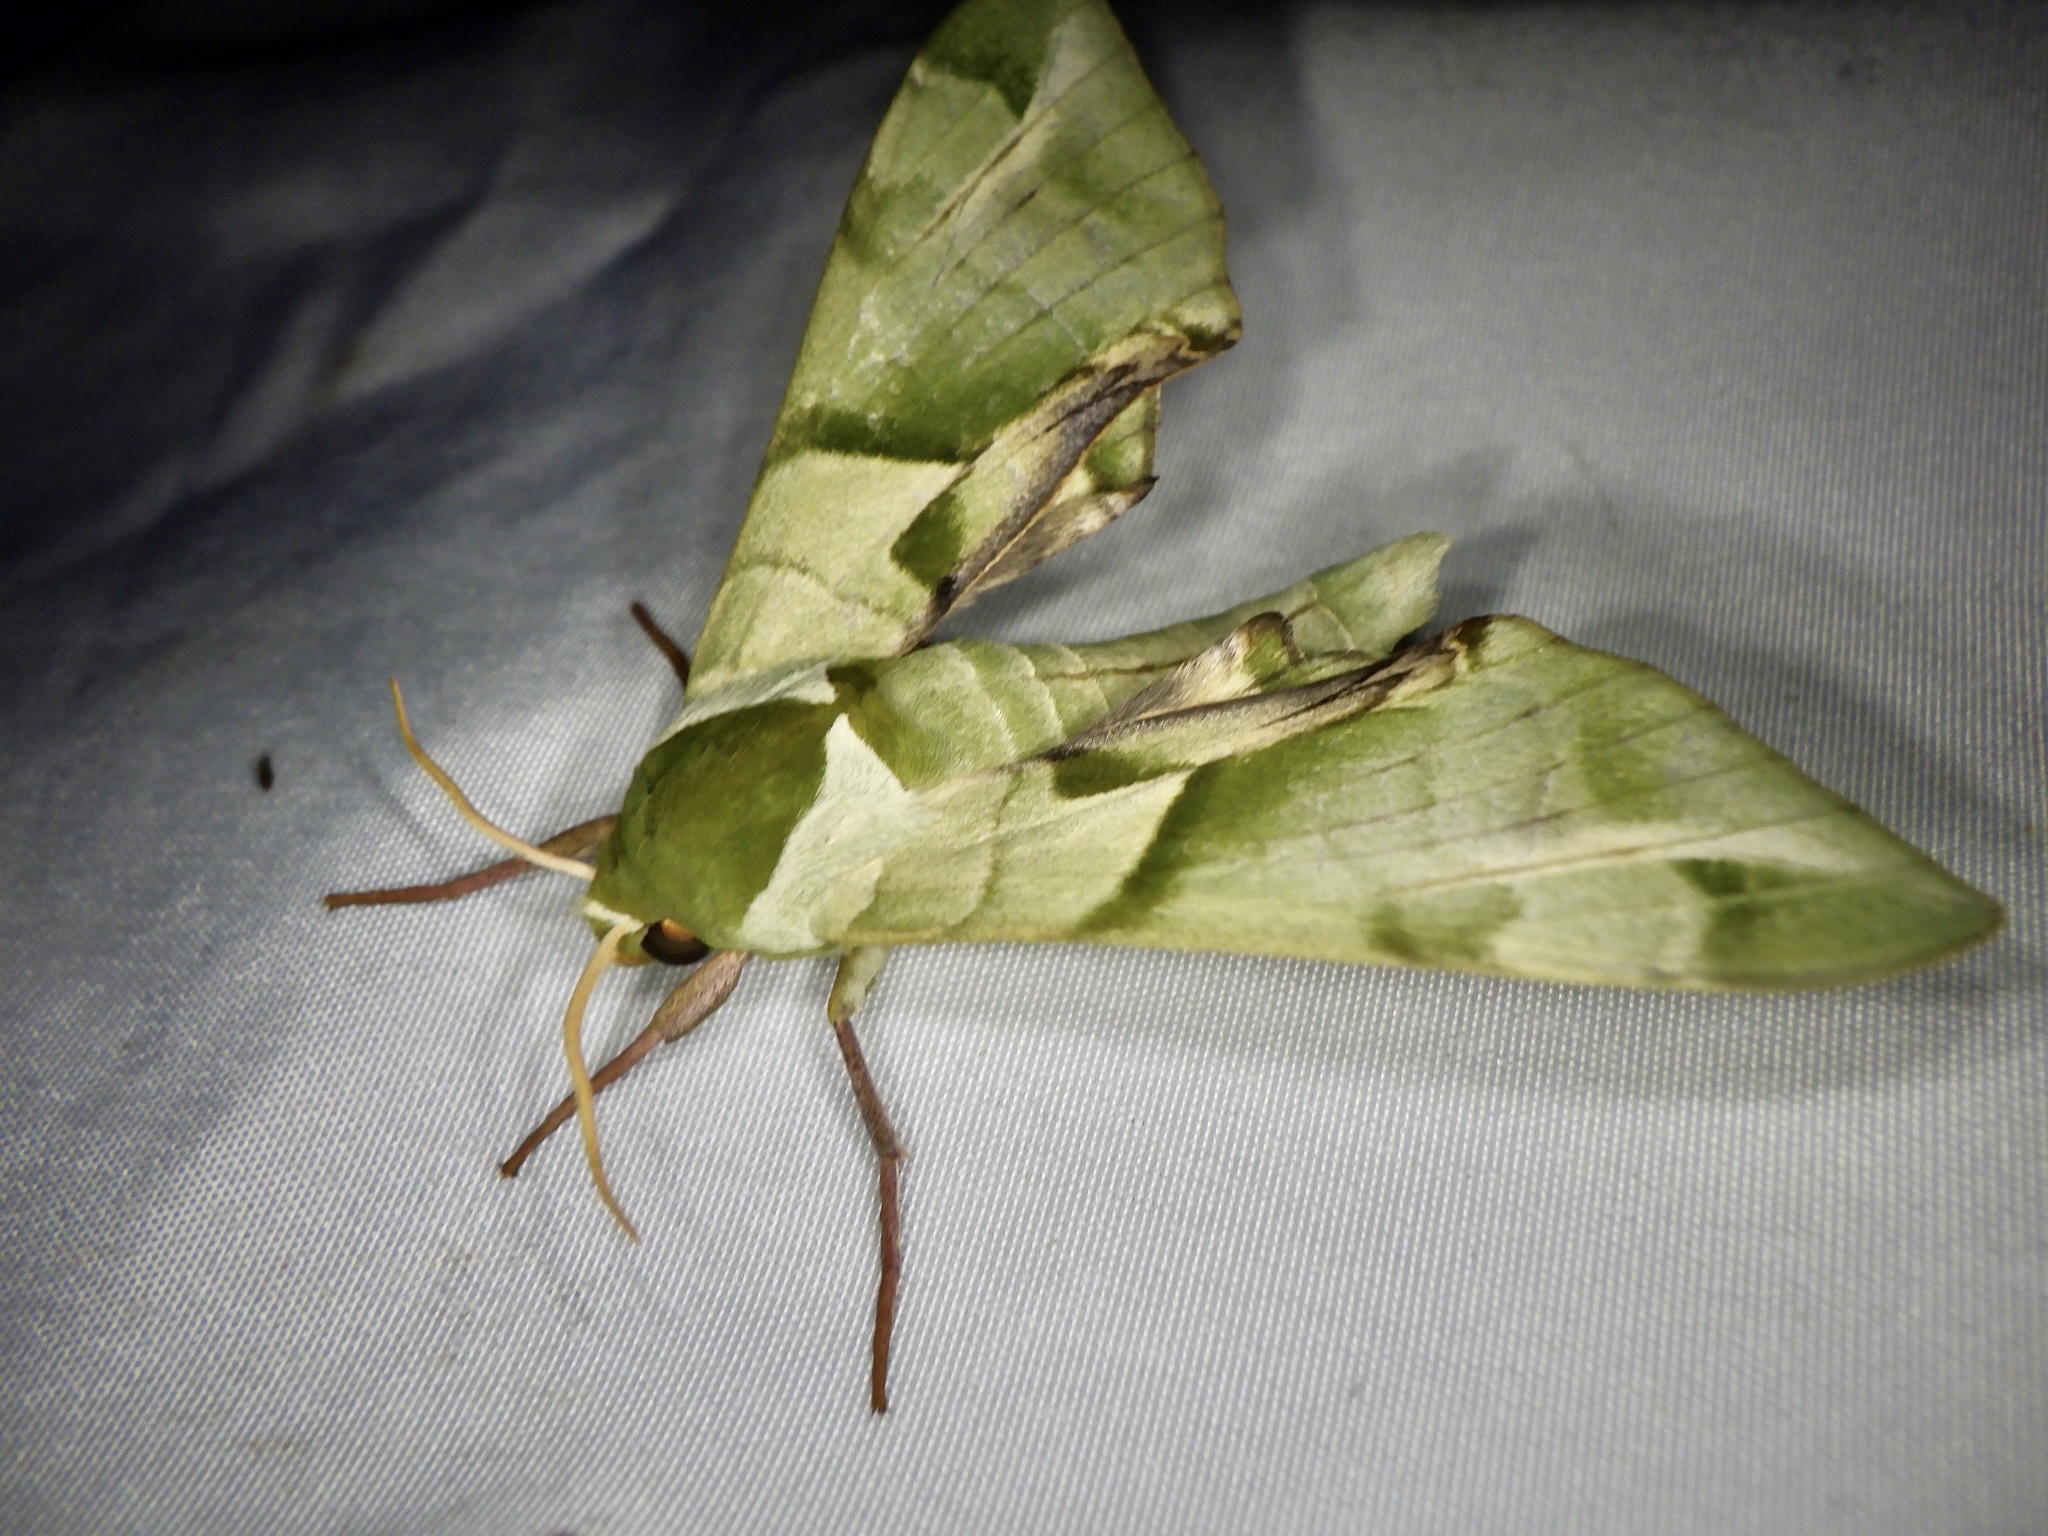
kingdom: Animalia
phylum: Arthropoda
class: Insecta
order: Lepidoptera
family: Sphingidae
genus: Callambulyx
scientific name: Callambulyx tatarinovii
